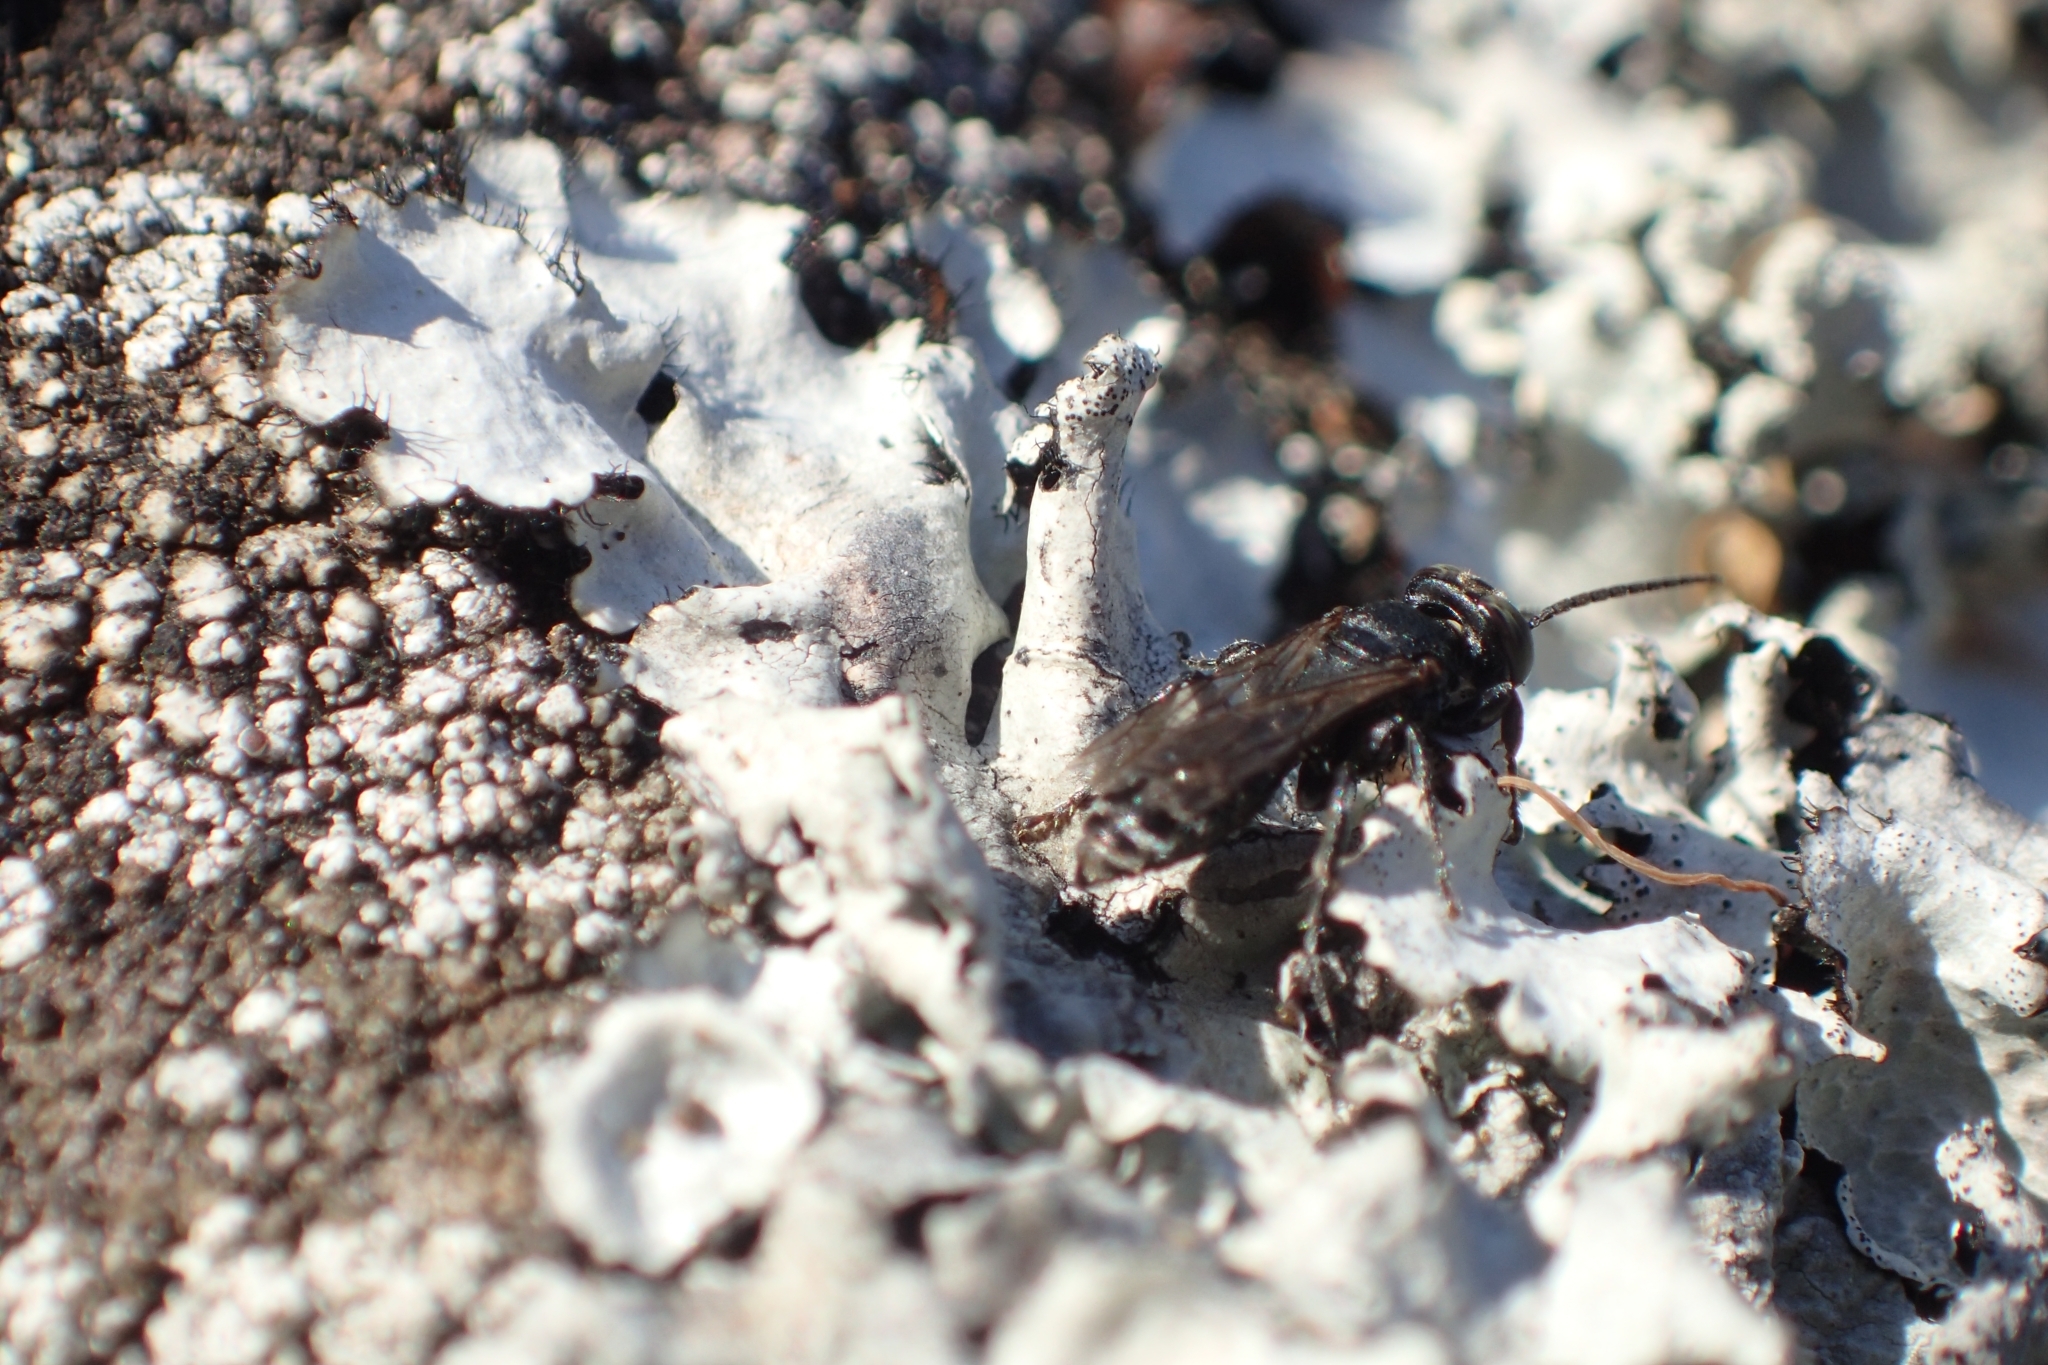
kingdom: Animalia
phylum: Arthropoda
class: Insecta
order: Hymenoptera
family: Crabronidae
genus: Tachysphex
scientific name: Tachysphex nigerrimus
